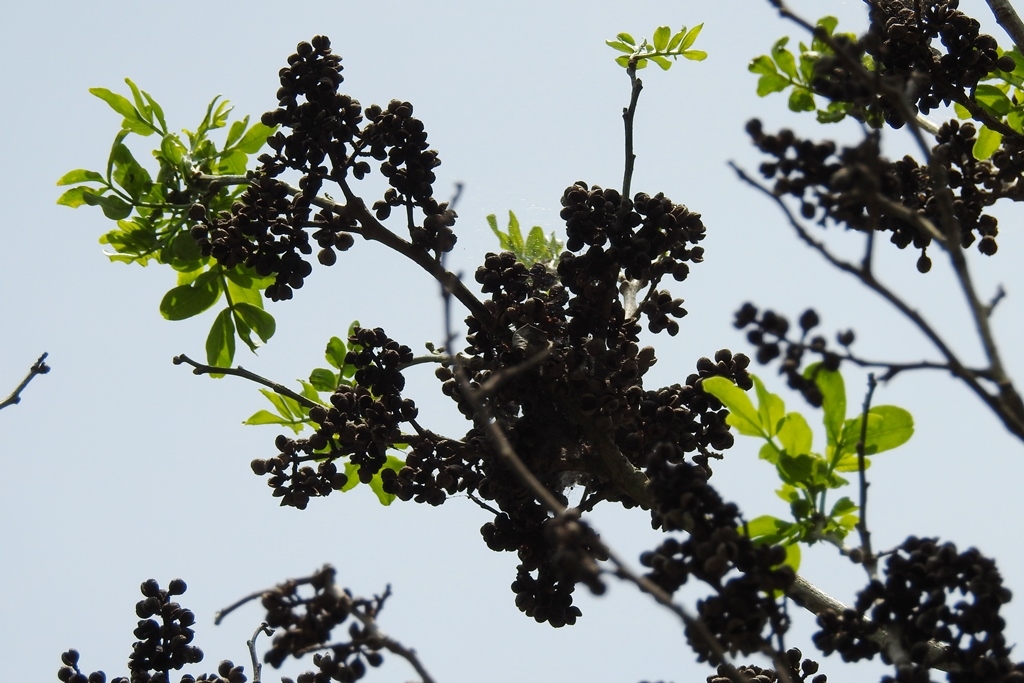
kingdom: Plantae
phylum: Tracheophyta
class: Magnoliopsida
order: Sapindales
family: Rutaceae
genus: Zanthoxylum
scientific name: Zanthoxylum quassiifolium
